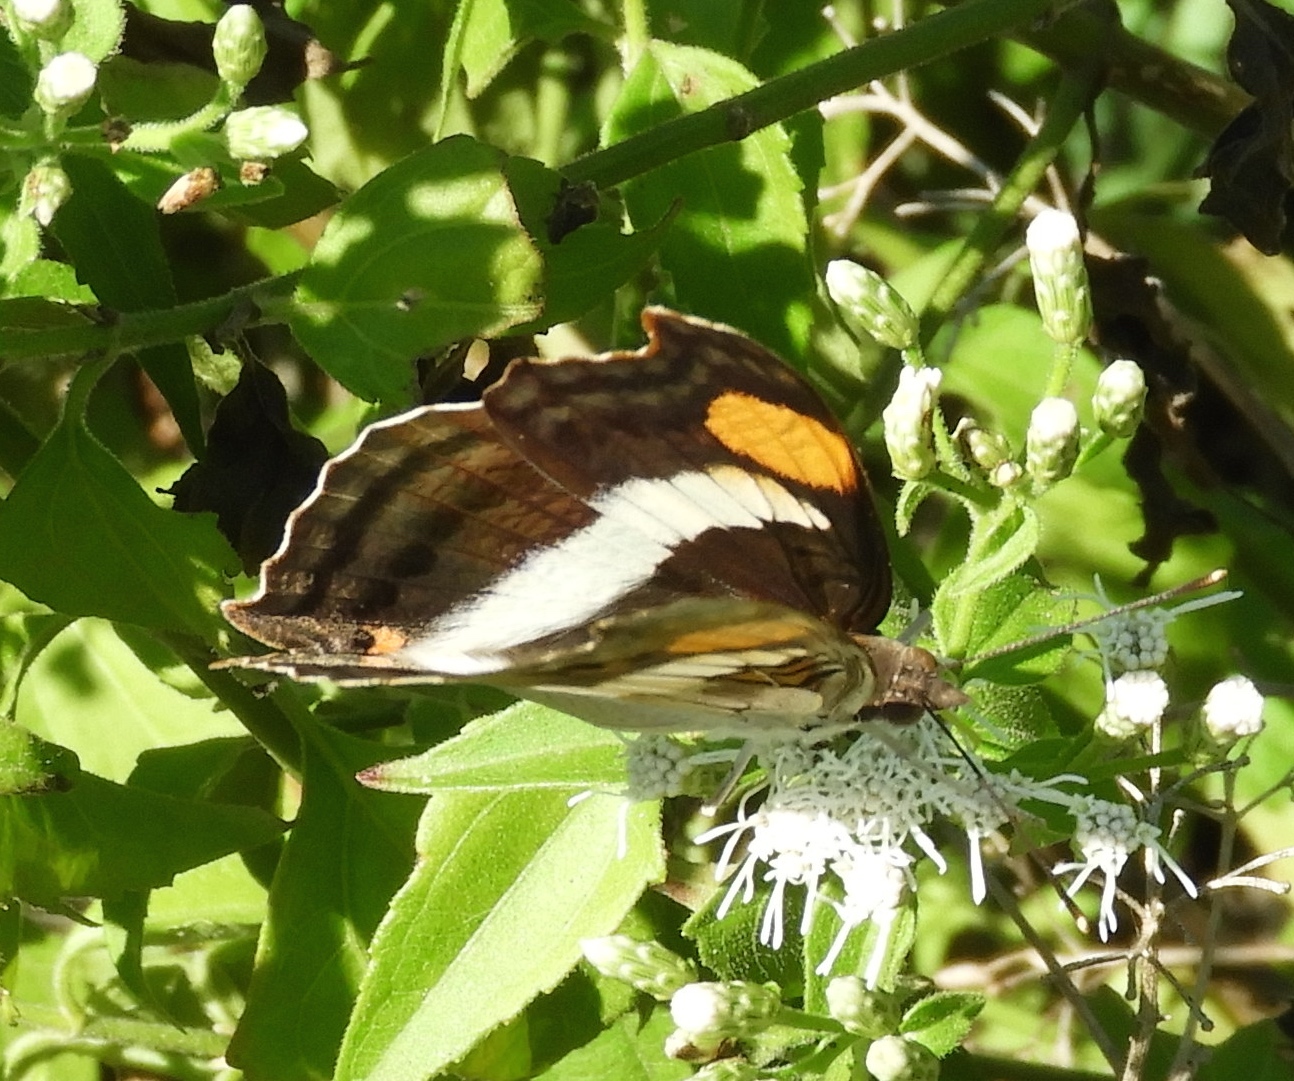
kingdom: Animalia
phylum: Arthropoda
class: Insecta
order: Lepidoptera
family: Nymphalidae
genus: Doxocopa
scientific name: Doxocopa laure
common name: Silver emperor
